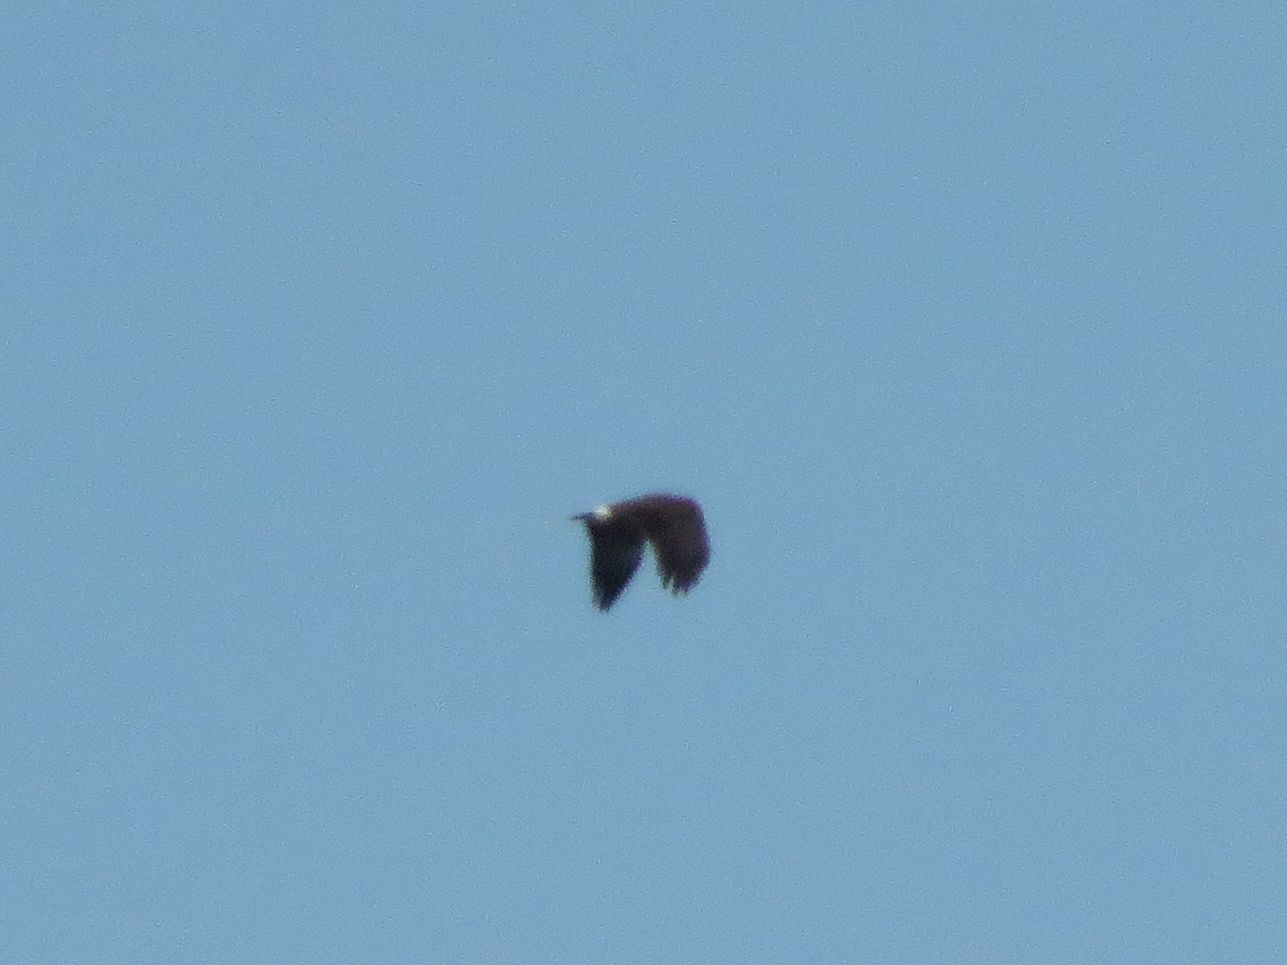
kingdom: Animalia
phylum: Chordata
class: Aves
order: Accipitriformes
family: Accipitridae
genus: Rostrhamus
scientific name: Rostrhamus sociabilis
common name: Snail kite
